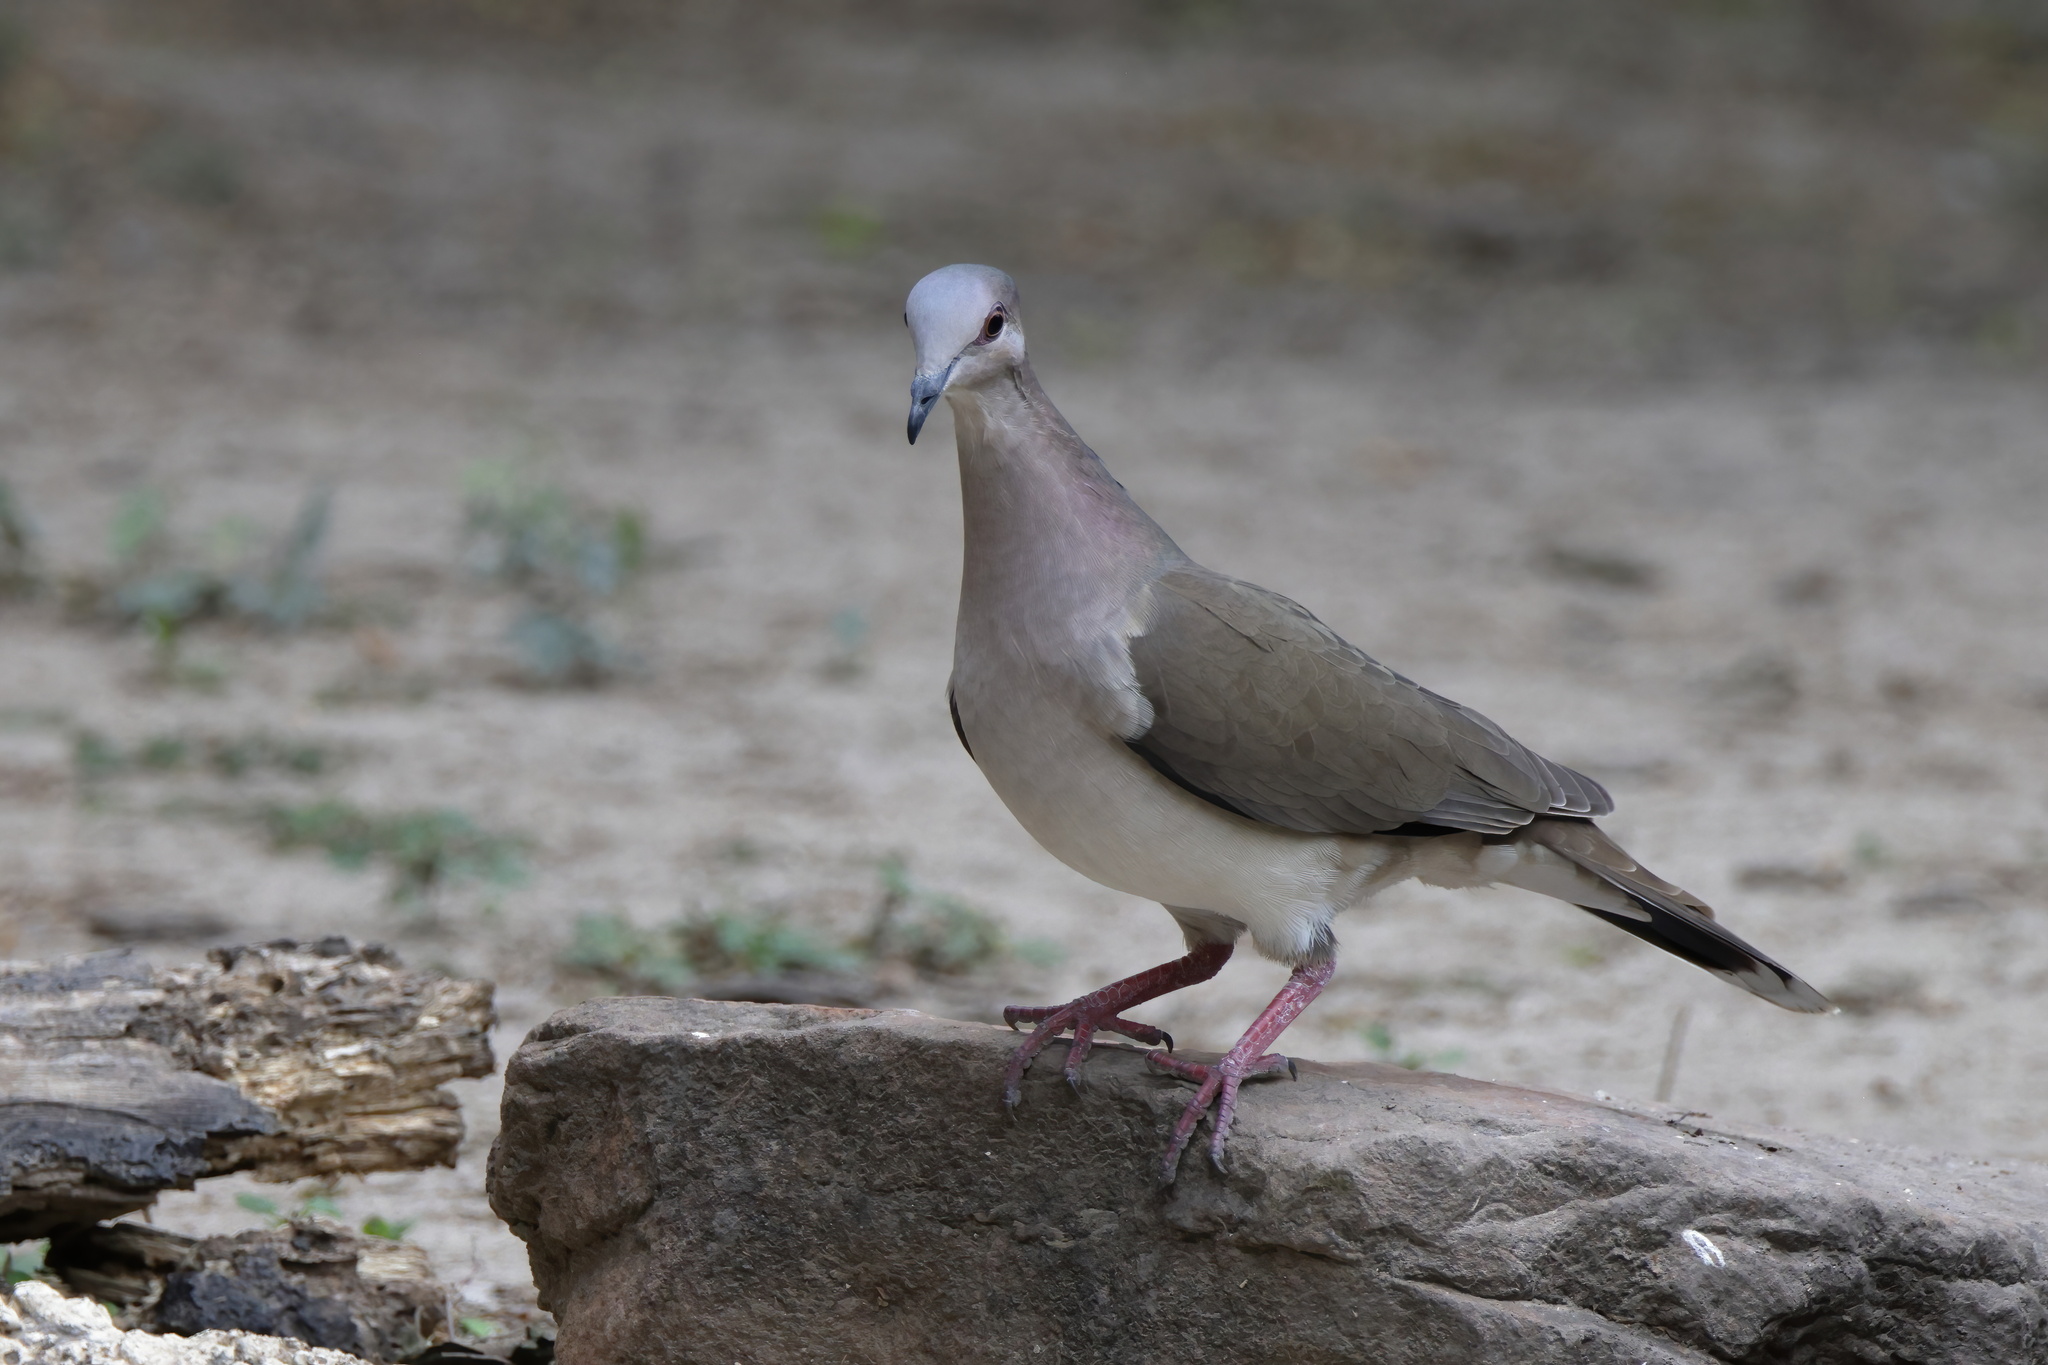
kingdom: Animalia
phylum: Chordata
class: Aves
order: Columbiformes
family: Columbidae
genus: Leptotila
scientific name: Leptotila verreauxi
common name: White-tipped dove
